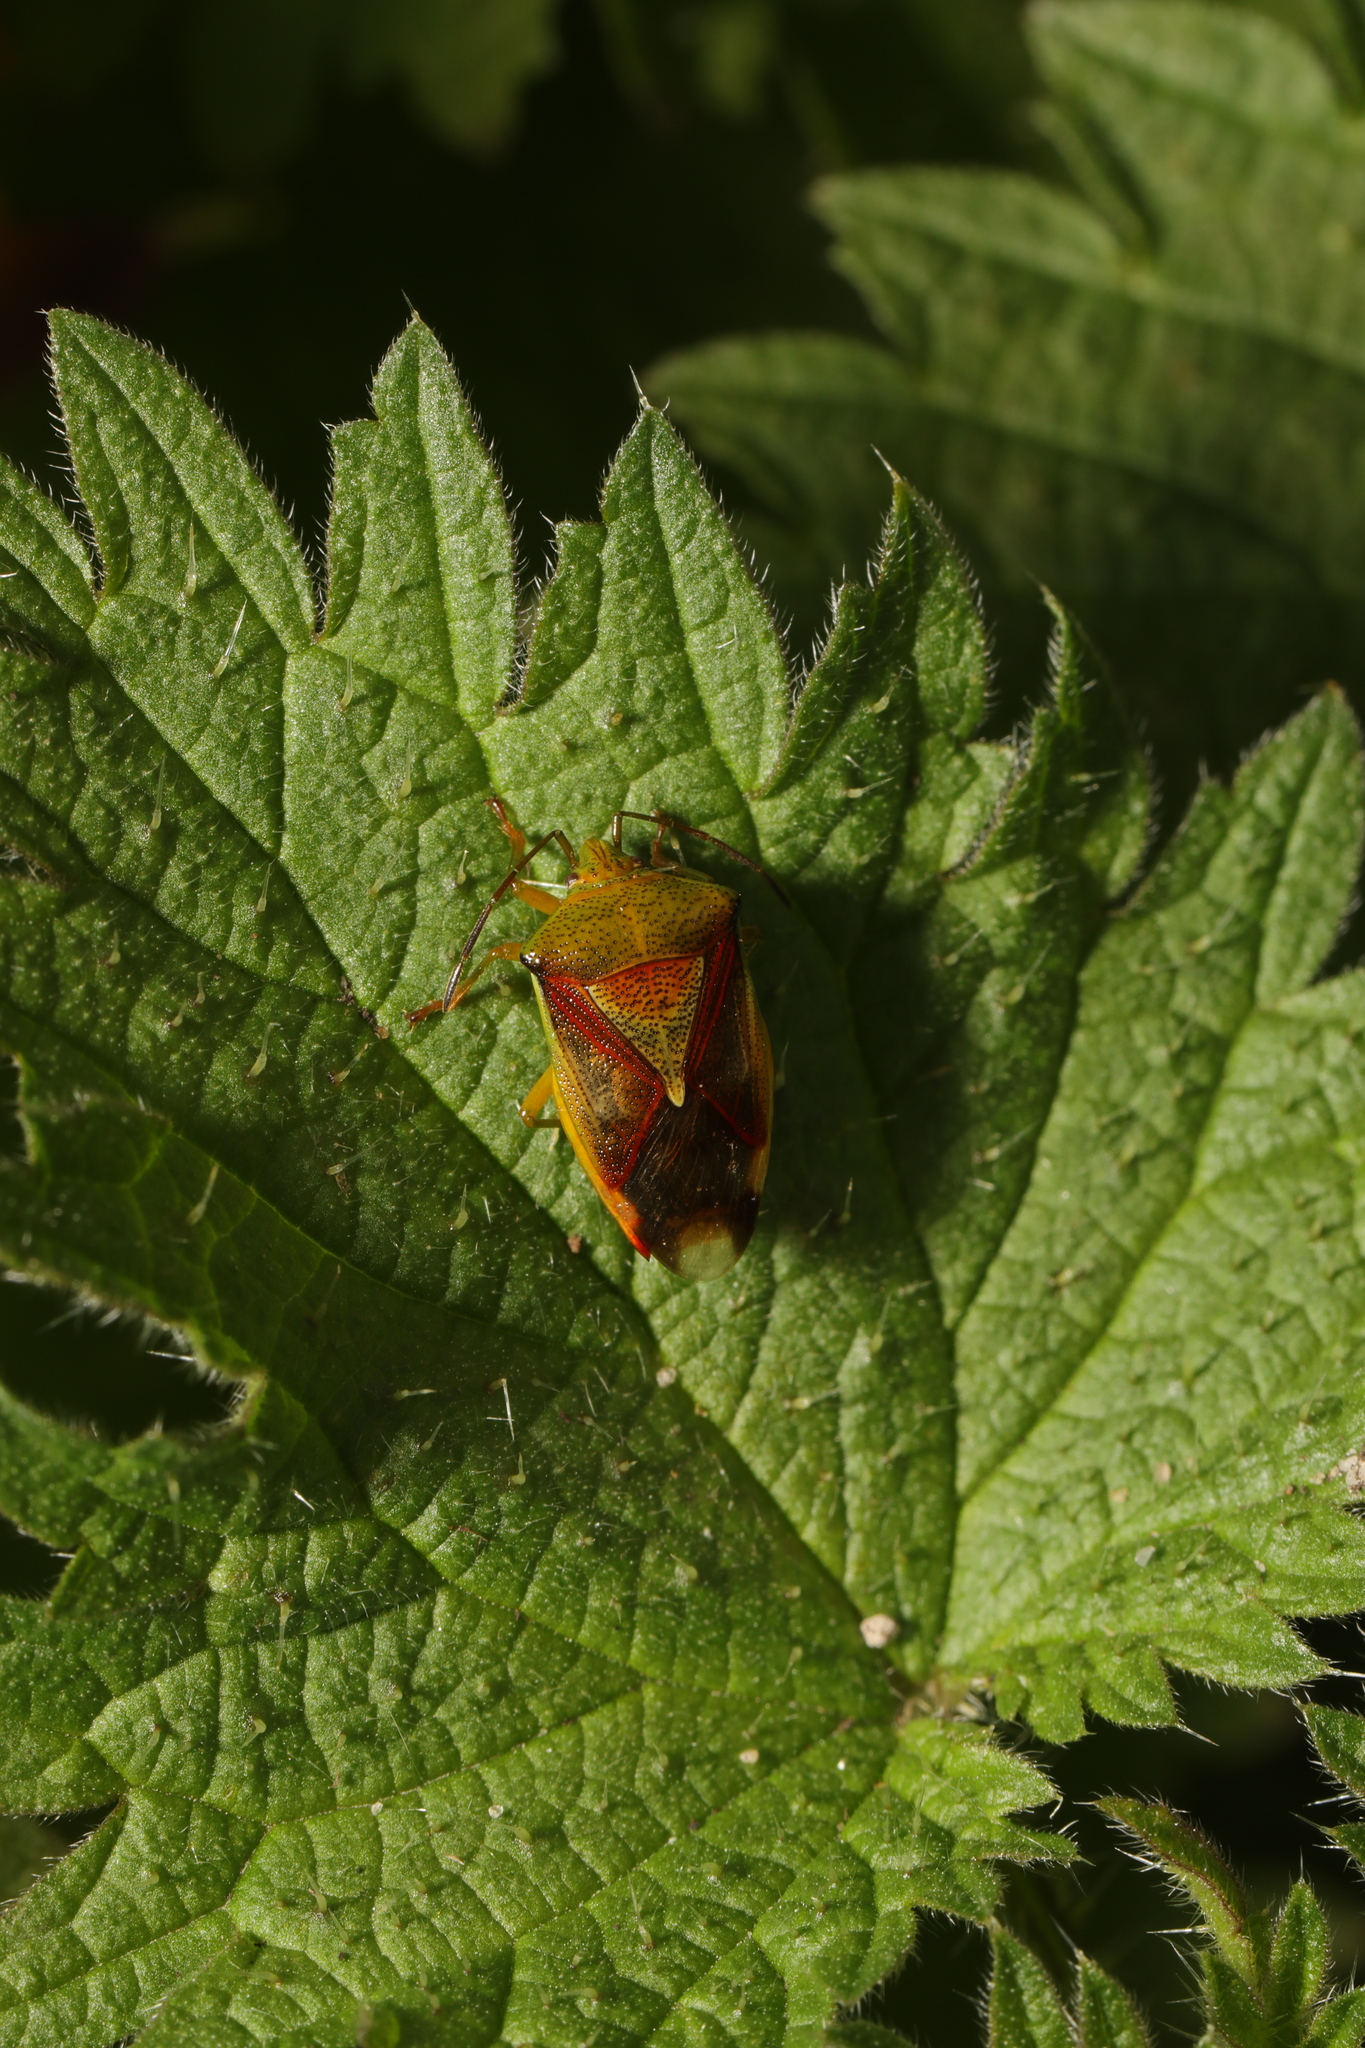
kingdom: Animalia
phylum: Arthropoda
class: Insecta
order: Hemiptera
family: Acanthosomatidae
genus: Elasmostethus
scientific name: Elasmostethus interstinctus
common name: Birch shieldbug
